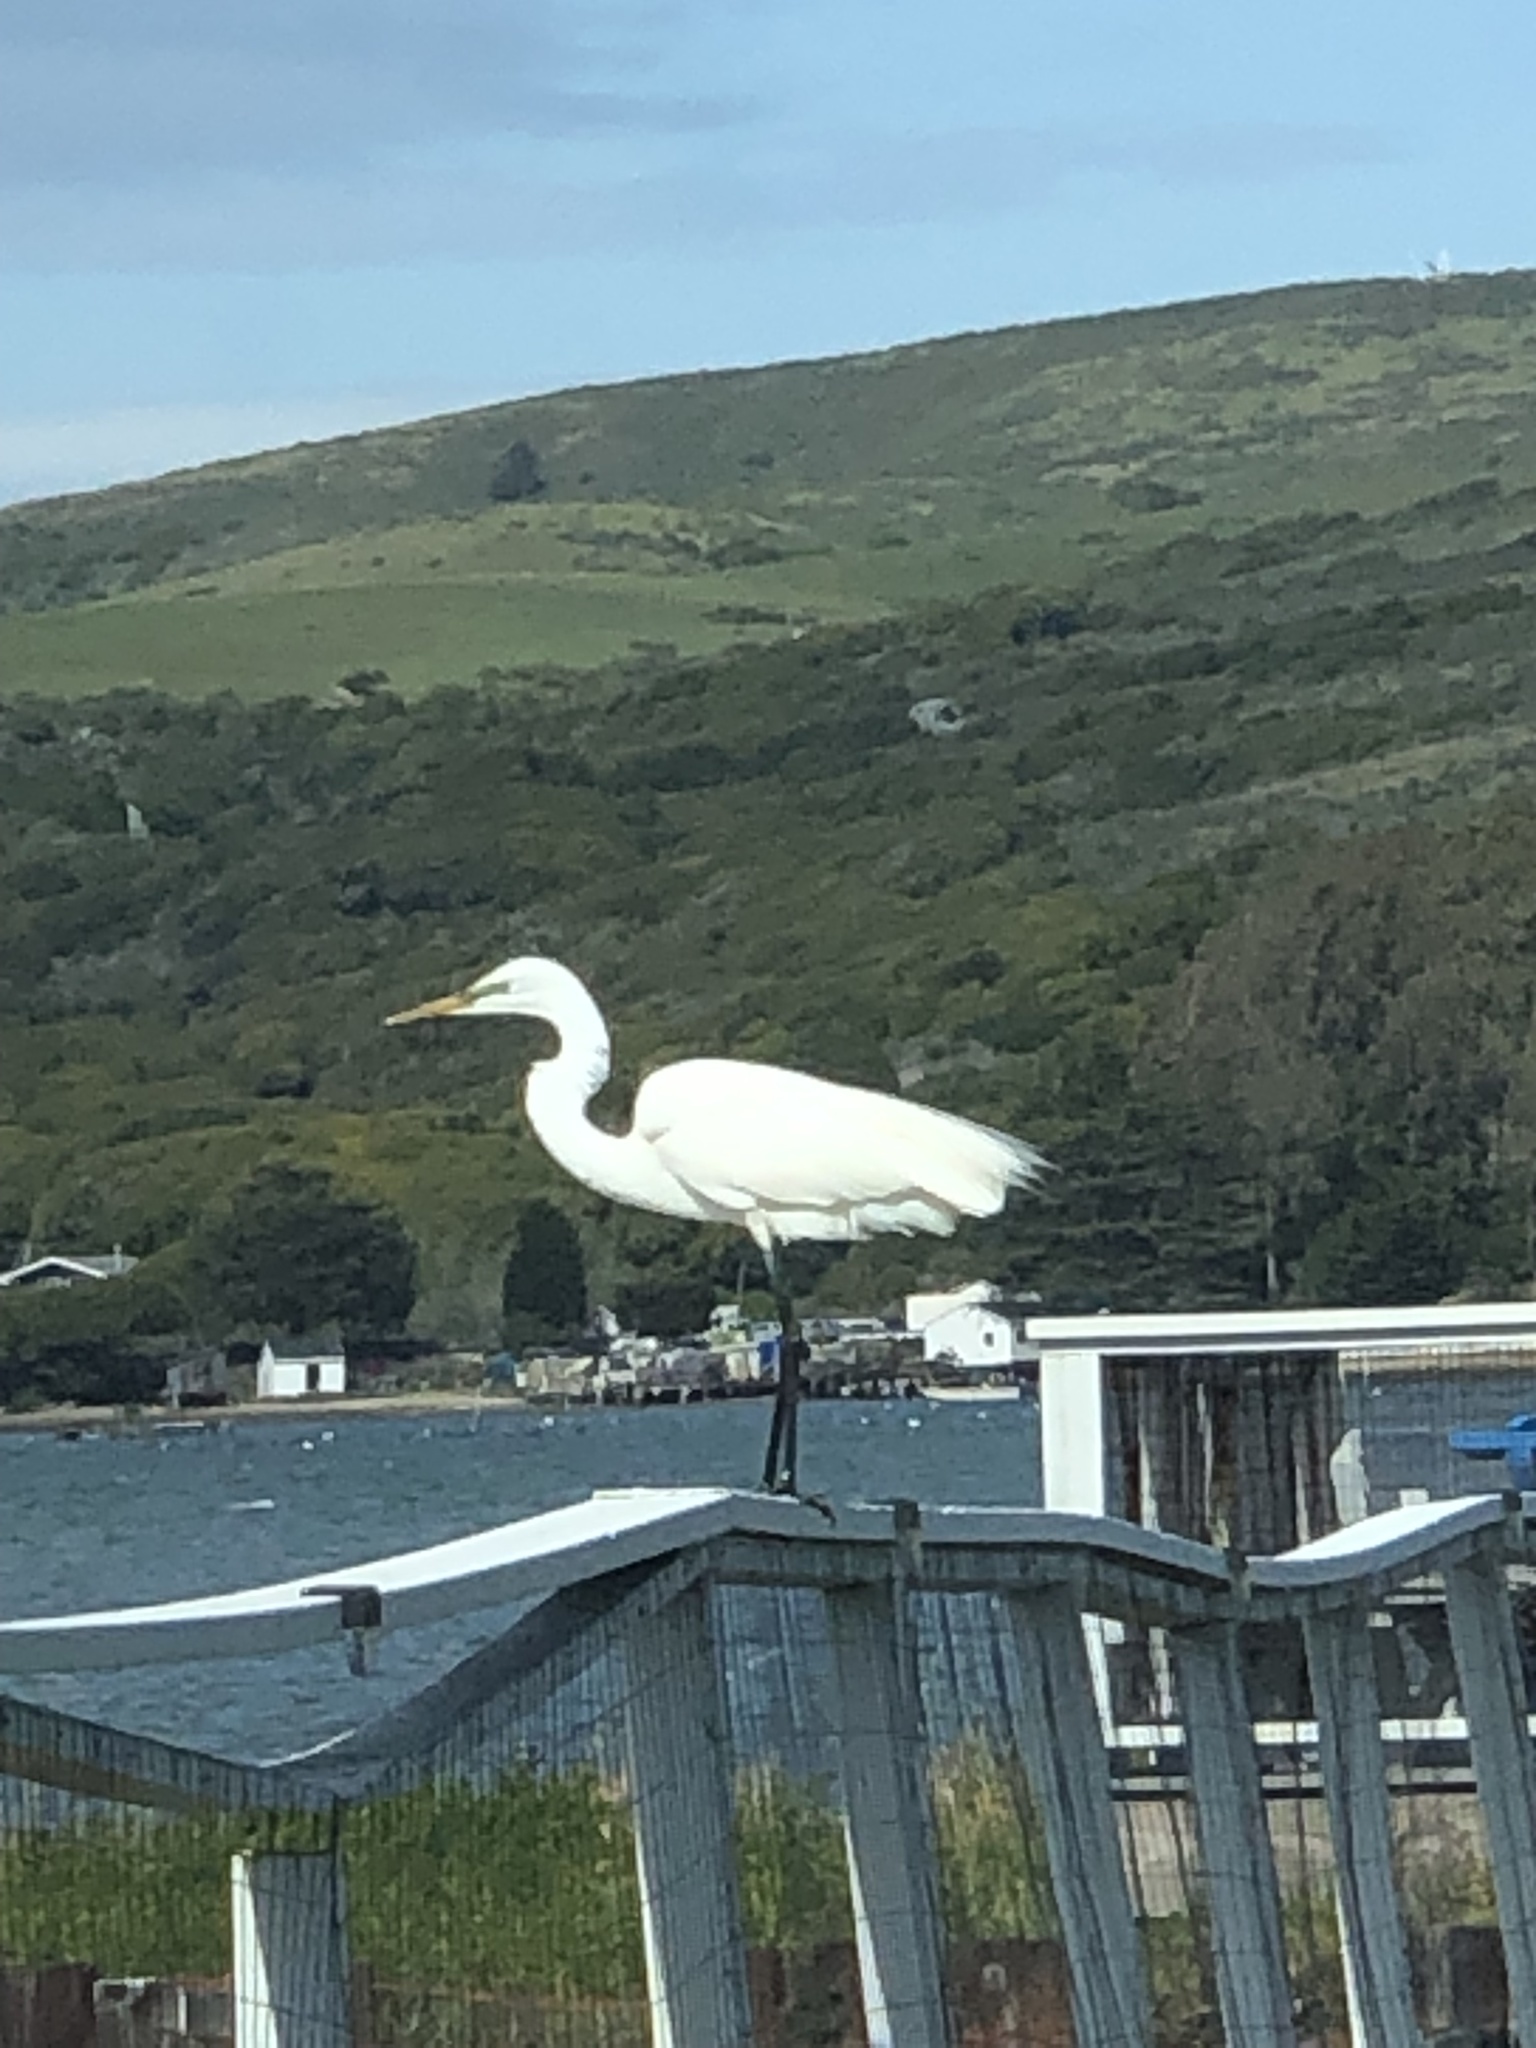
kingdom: Animalia
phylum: Chordata
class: Aves
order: Pelecaniformes
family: Ardeidae
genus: Ardea
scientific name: Ardea alba
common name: Great egret
